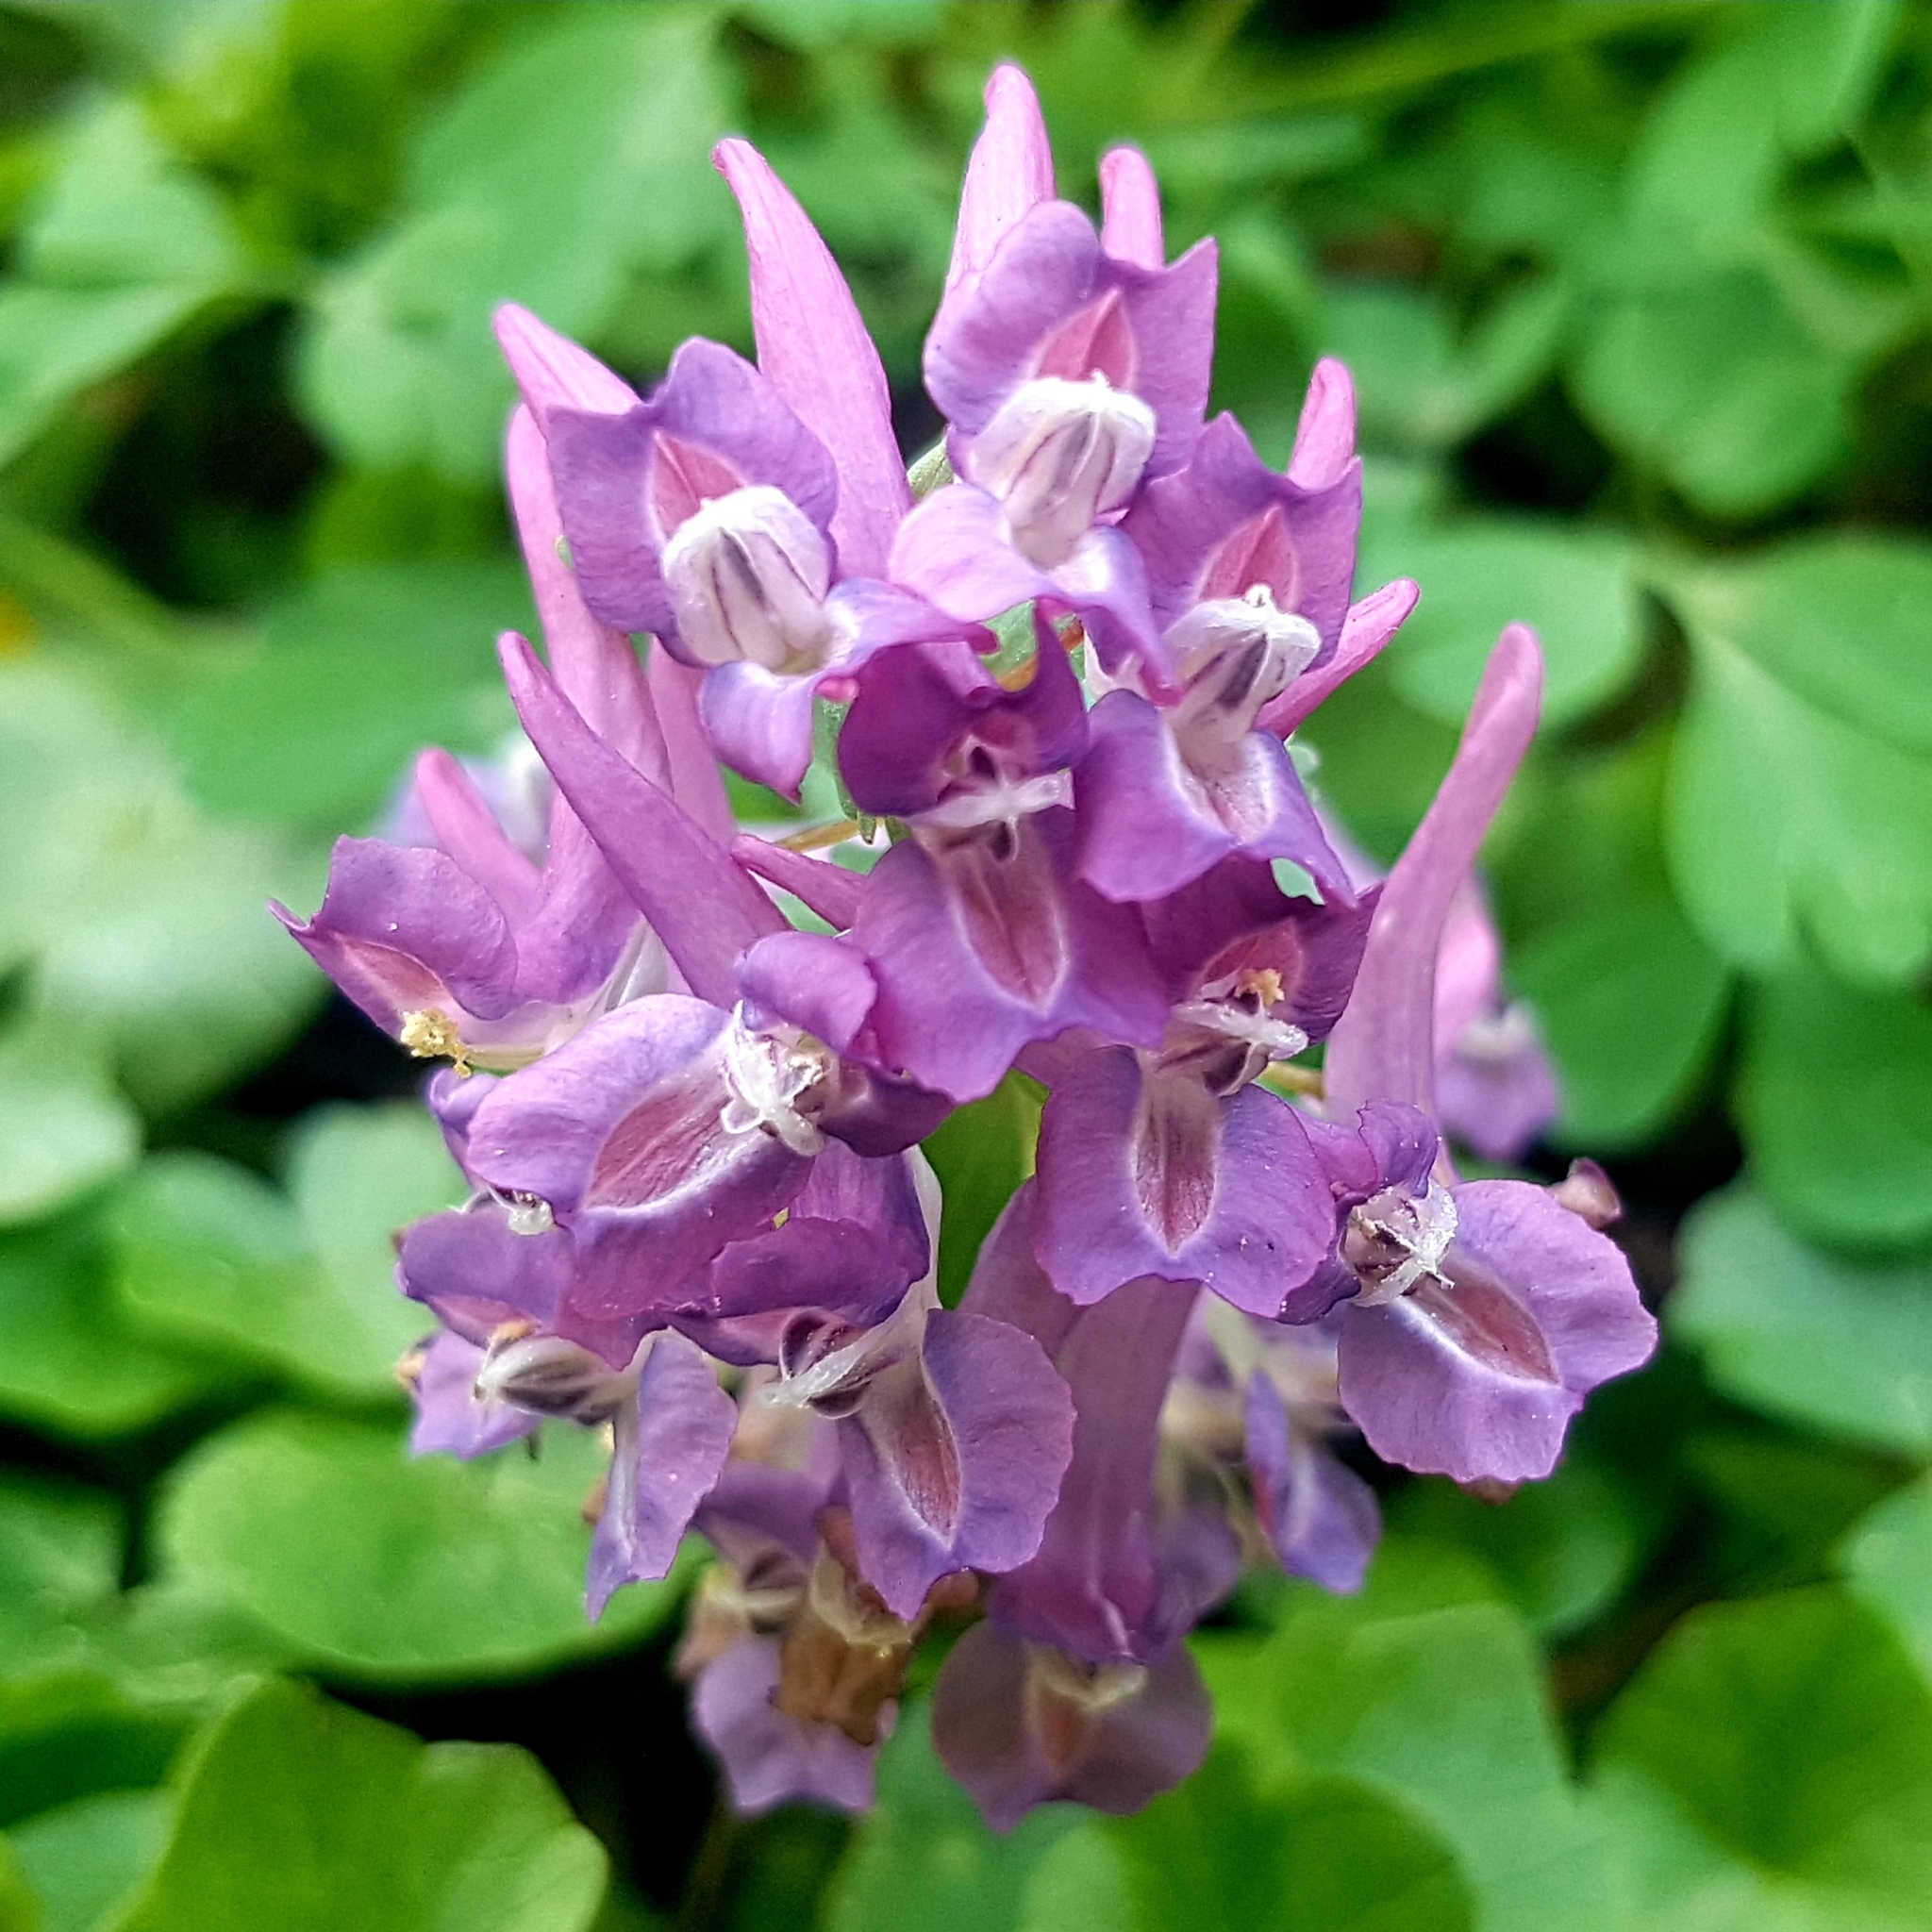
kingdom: Plantae
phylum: Tracheophyta
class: Magnoliopsida
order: Ranunculales
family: Papaveraceae
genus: Corydalis
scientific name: Corydalis solida
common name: Bird-in-a-bush
